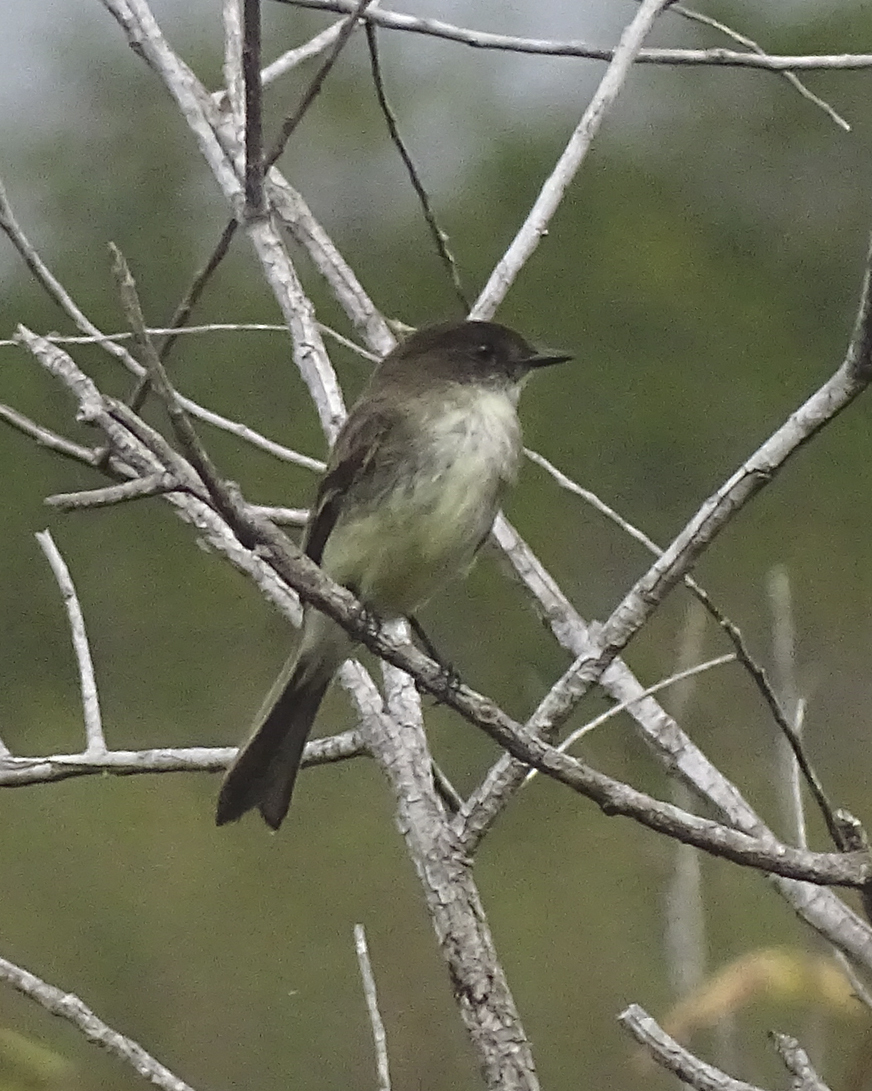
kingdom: Animalia
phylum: Chordata
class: Aves
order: Passeriformes
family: Tyrannidae
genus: Sayornis
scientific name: Sayornis phoebe
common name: Eastern phoebe
